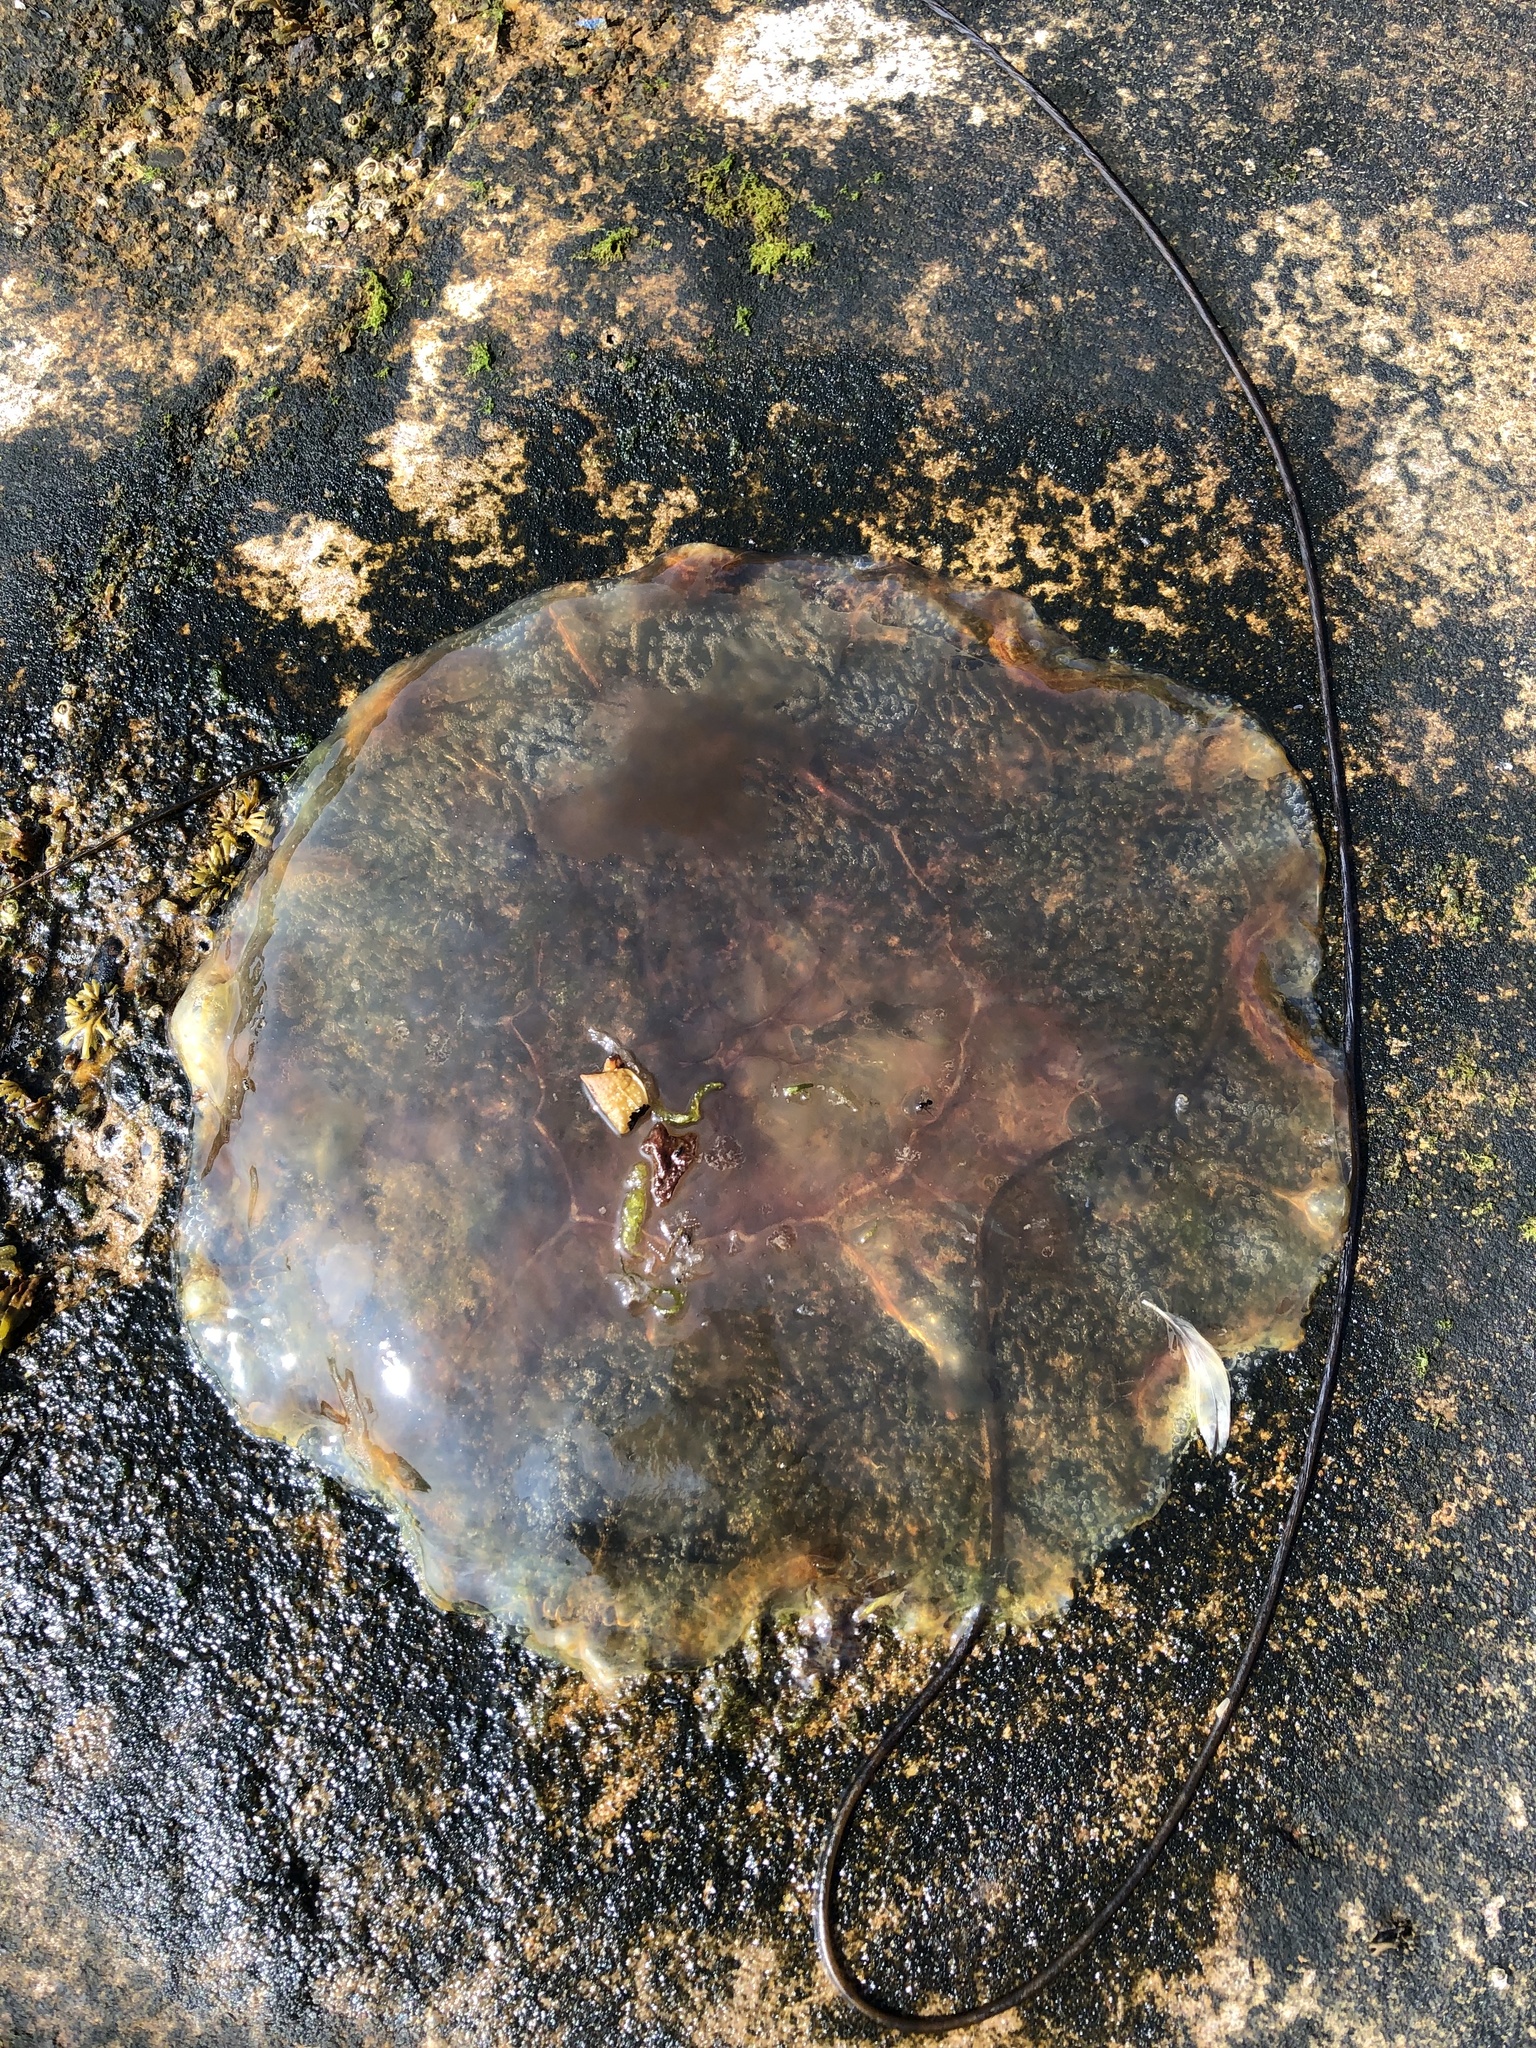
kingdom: Animalia
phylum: Cnidaria
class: Scyphozoa
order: Semaeostomeae
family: Cyaneidae
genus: Cyanea
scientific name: Cyanea capillata
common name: Lion's mane jellyfish
